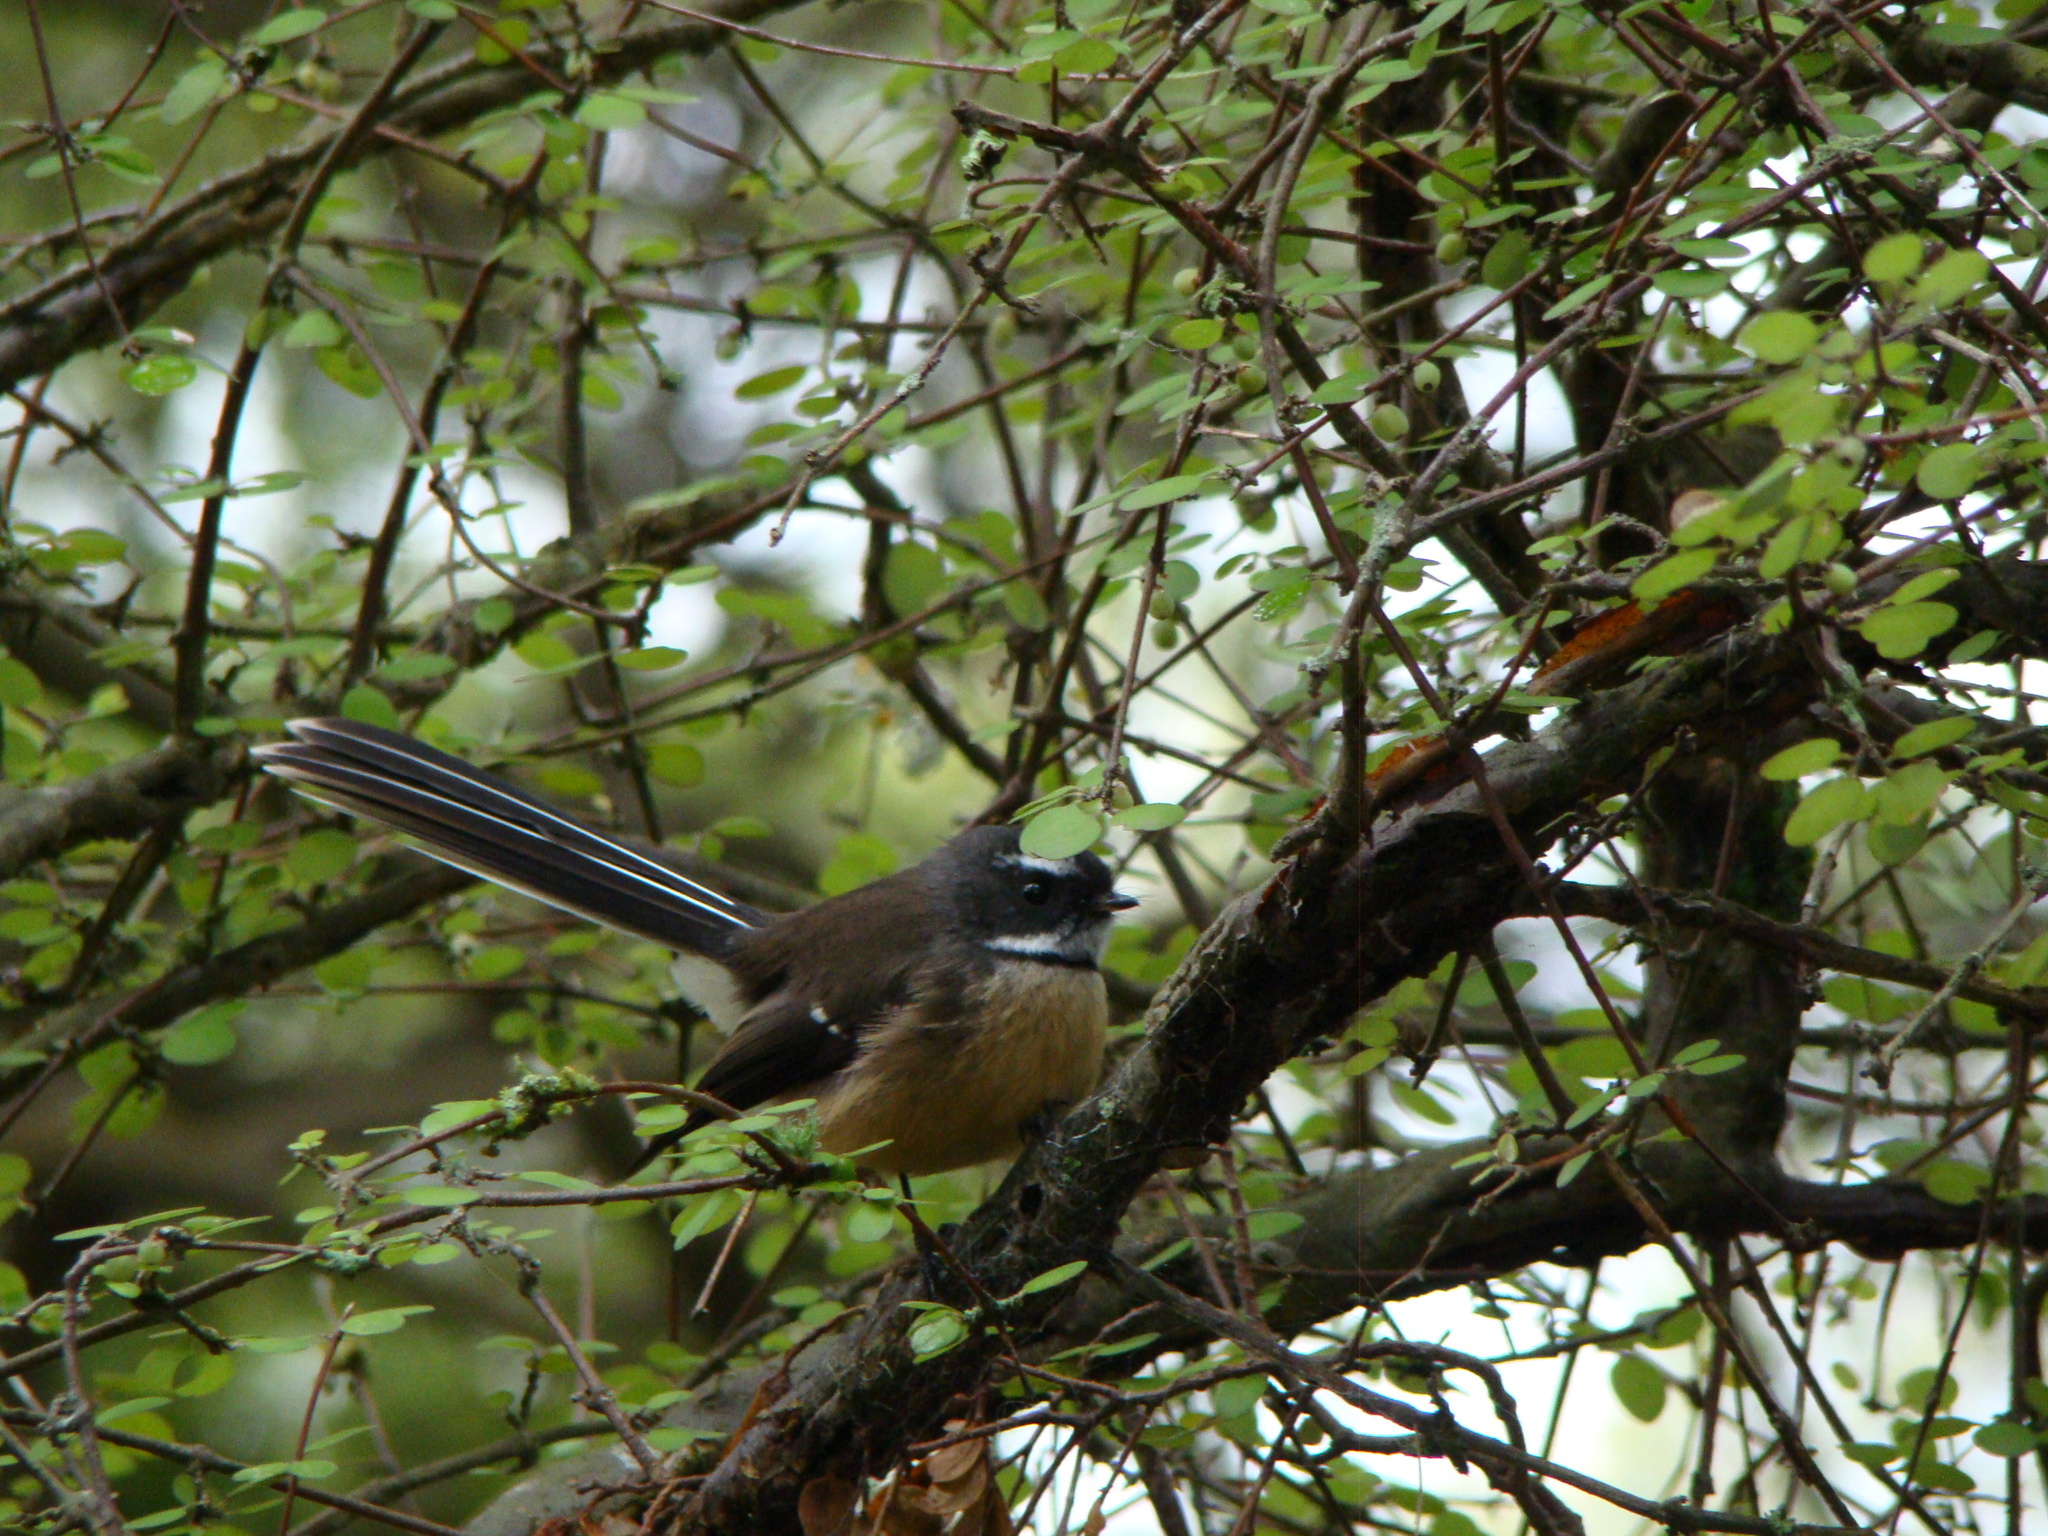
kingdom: Animalia
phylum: Chordata
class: Aves
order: Passeriformes
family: Rhipiduridae
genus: Rhipidura
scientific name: Rhipidura fuliginosa
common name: New zealand fantail
